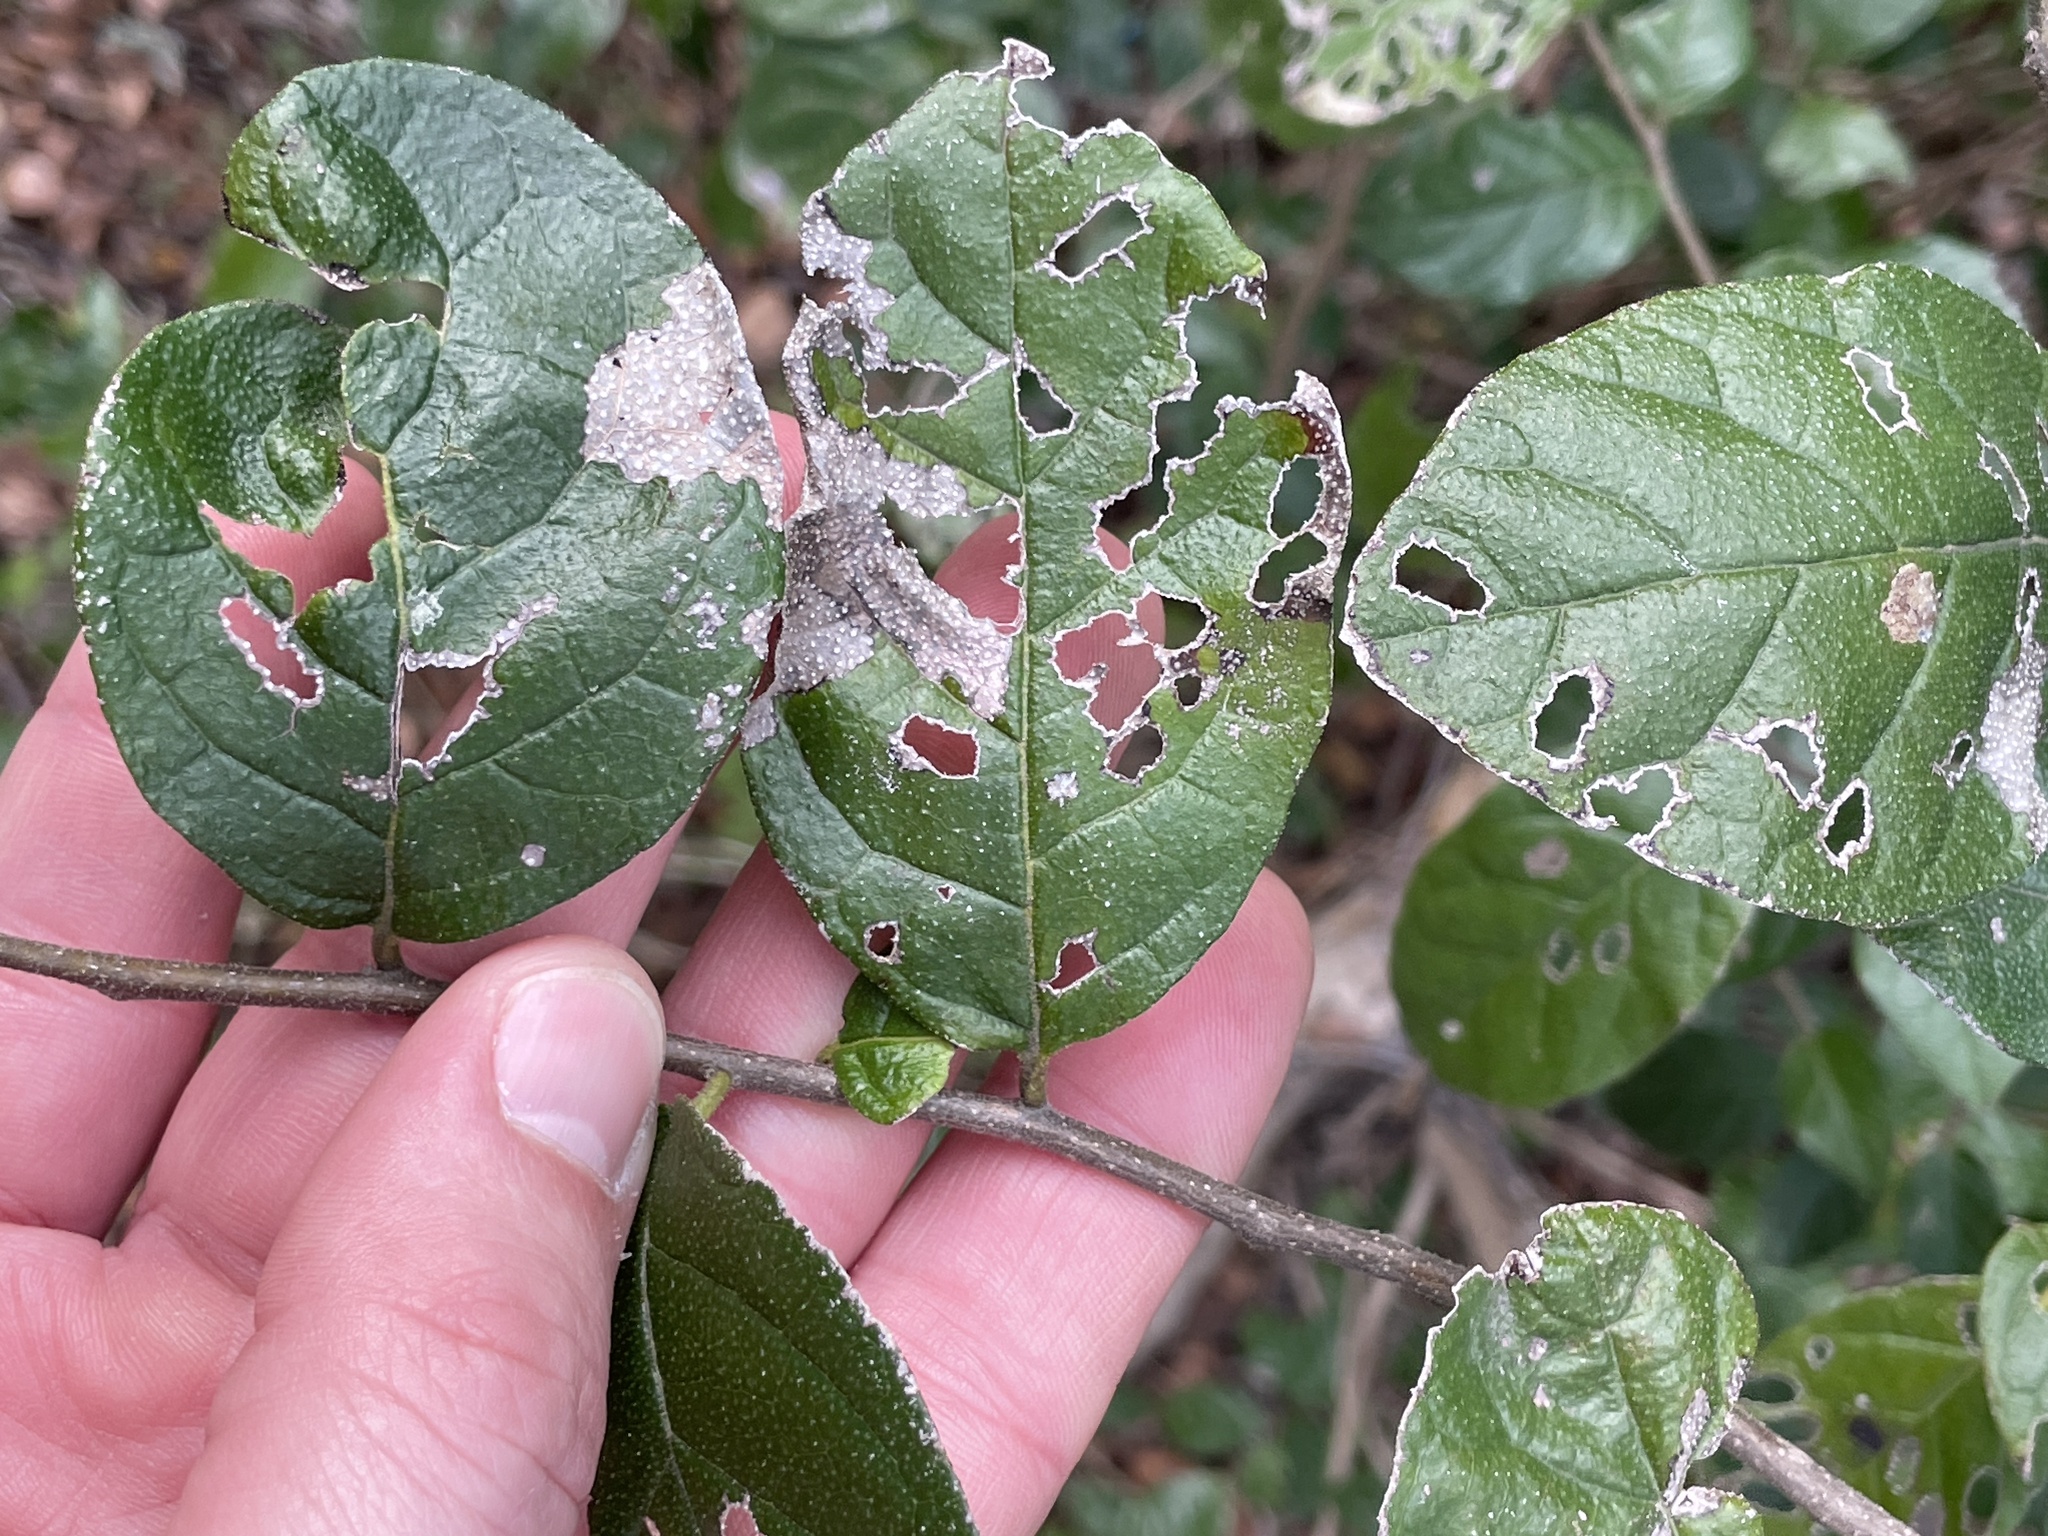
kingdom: Plantae
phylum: Tracheophyta
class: Magnoliopsida
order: Boraginales
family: Ehretiaceae
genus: Ehretia
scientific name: Ehretia anacua
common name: Sugarberry
